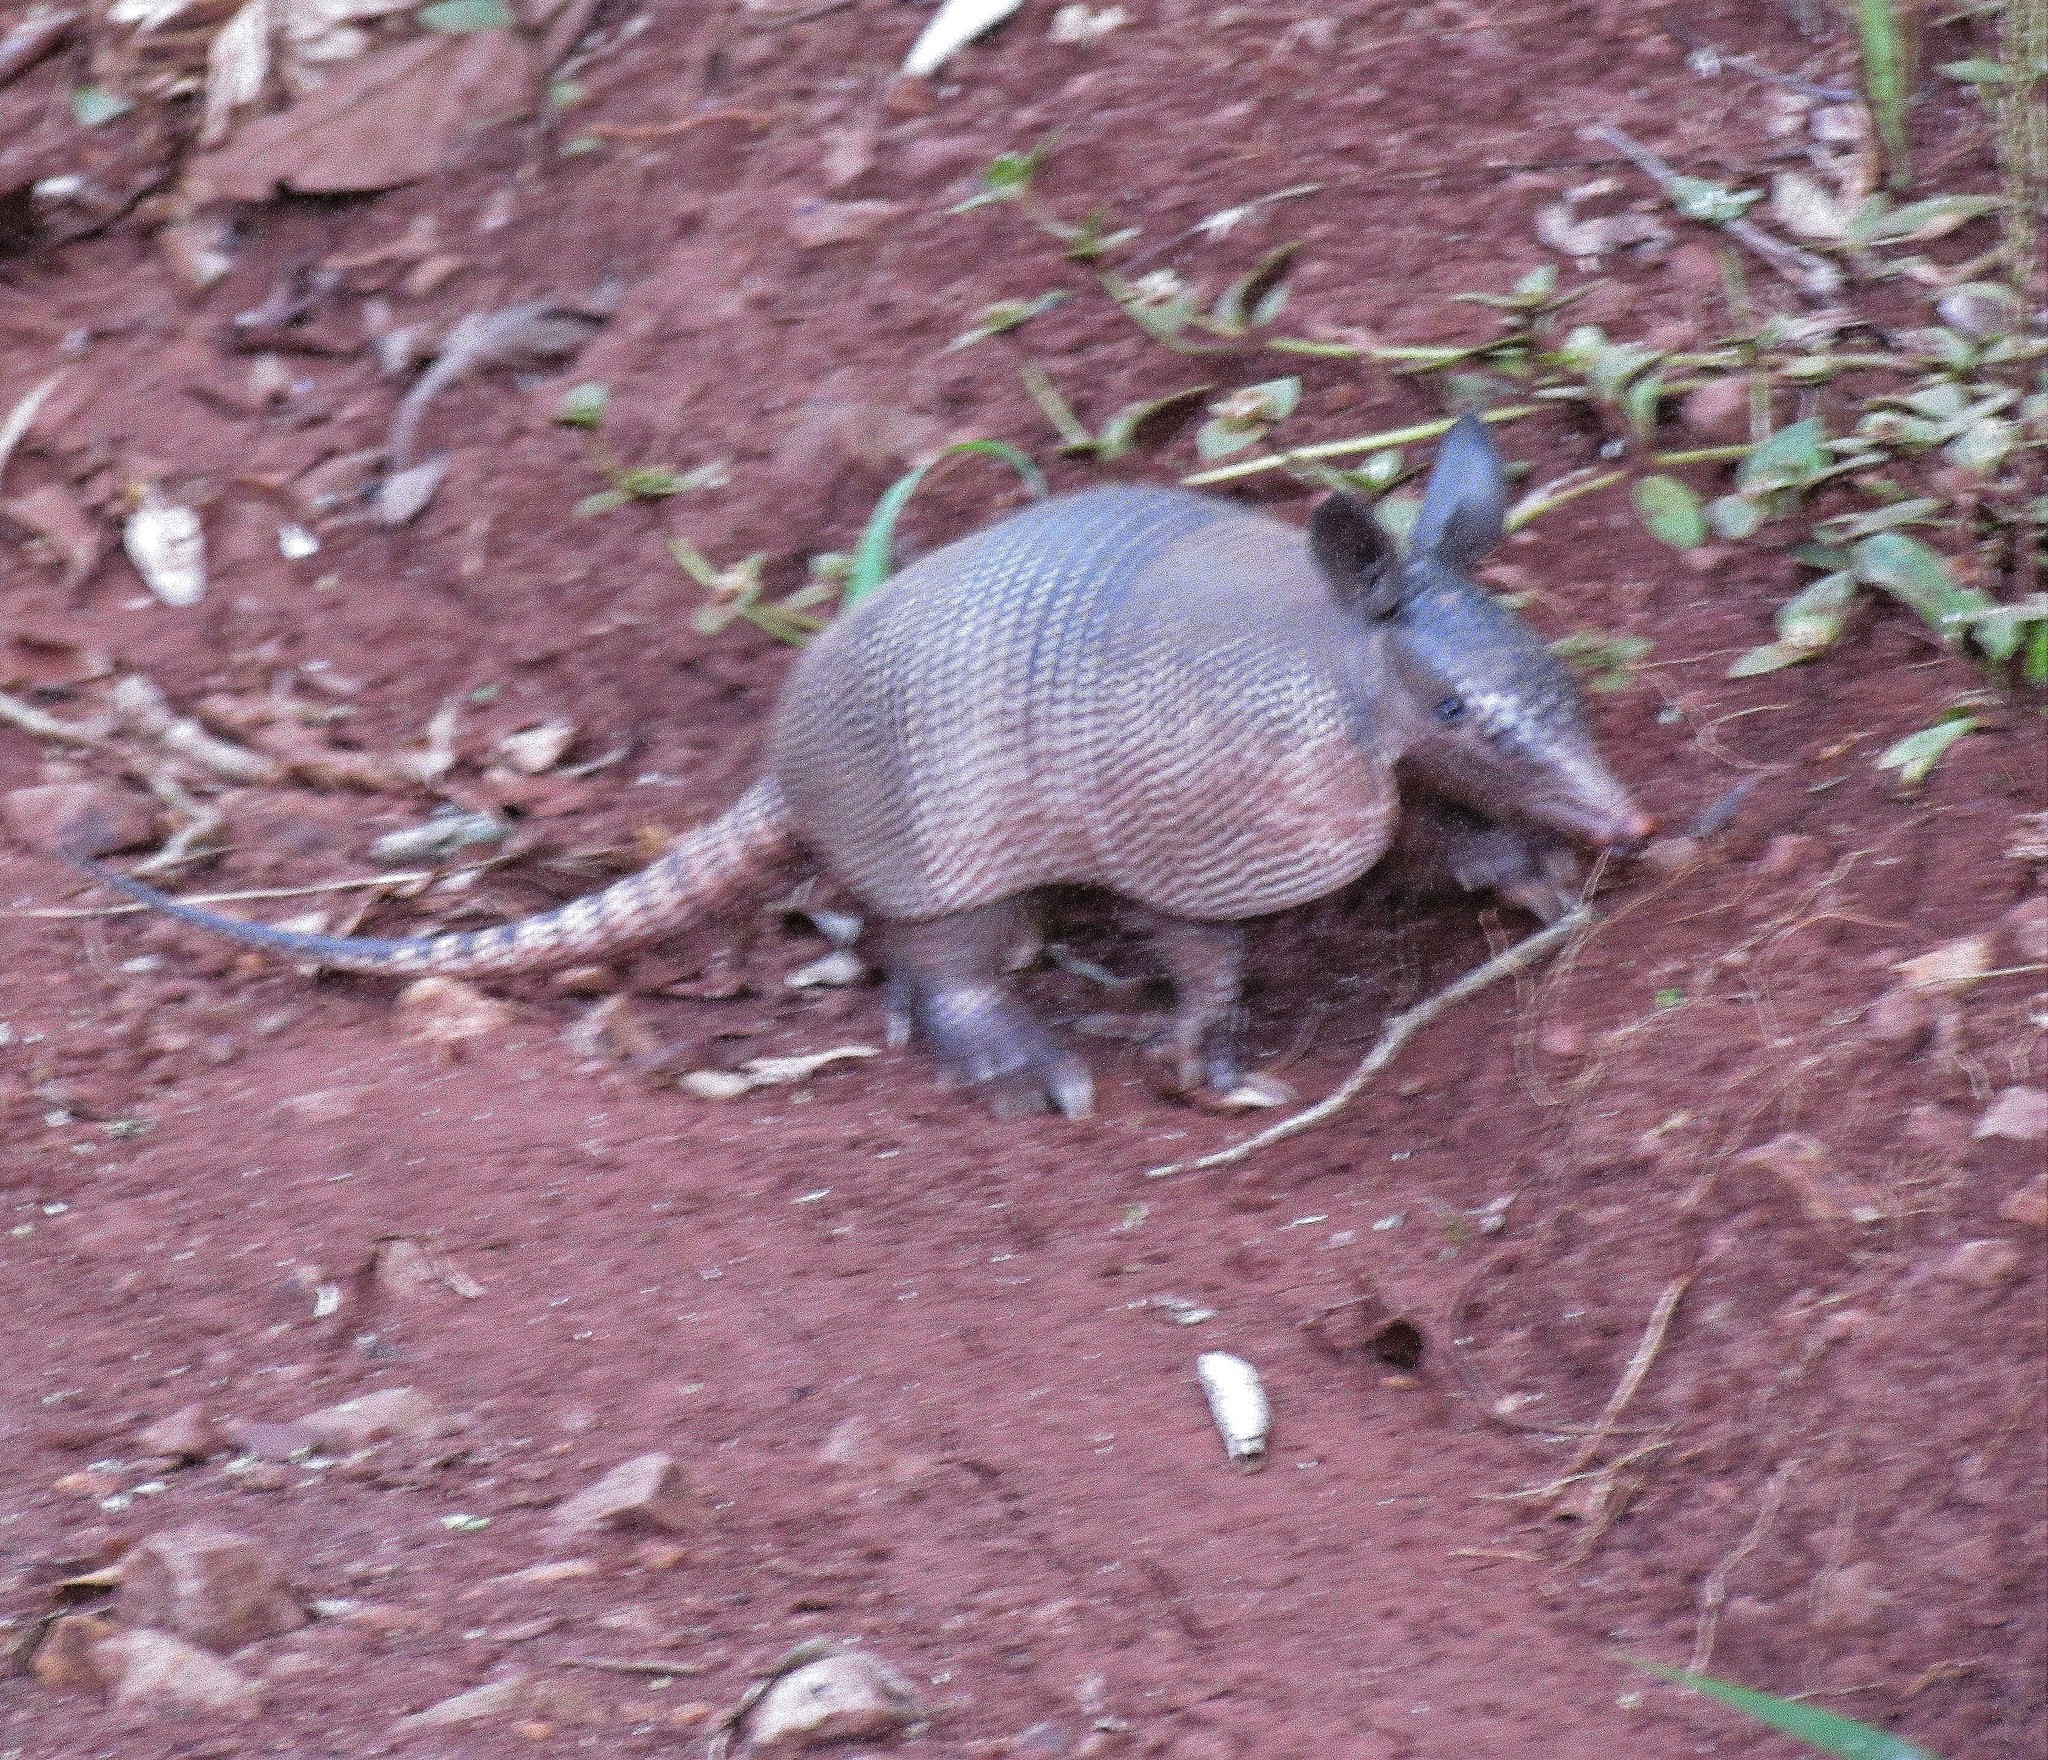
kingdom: Animalia
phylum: Chordata
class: Mammalia
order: Cingulata
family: Dasypodidae
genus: Dasypus
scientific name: Dasypus novemcinctus
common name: Nine-banded armadillo
